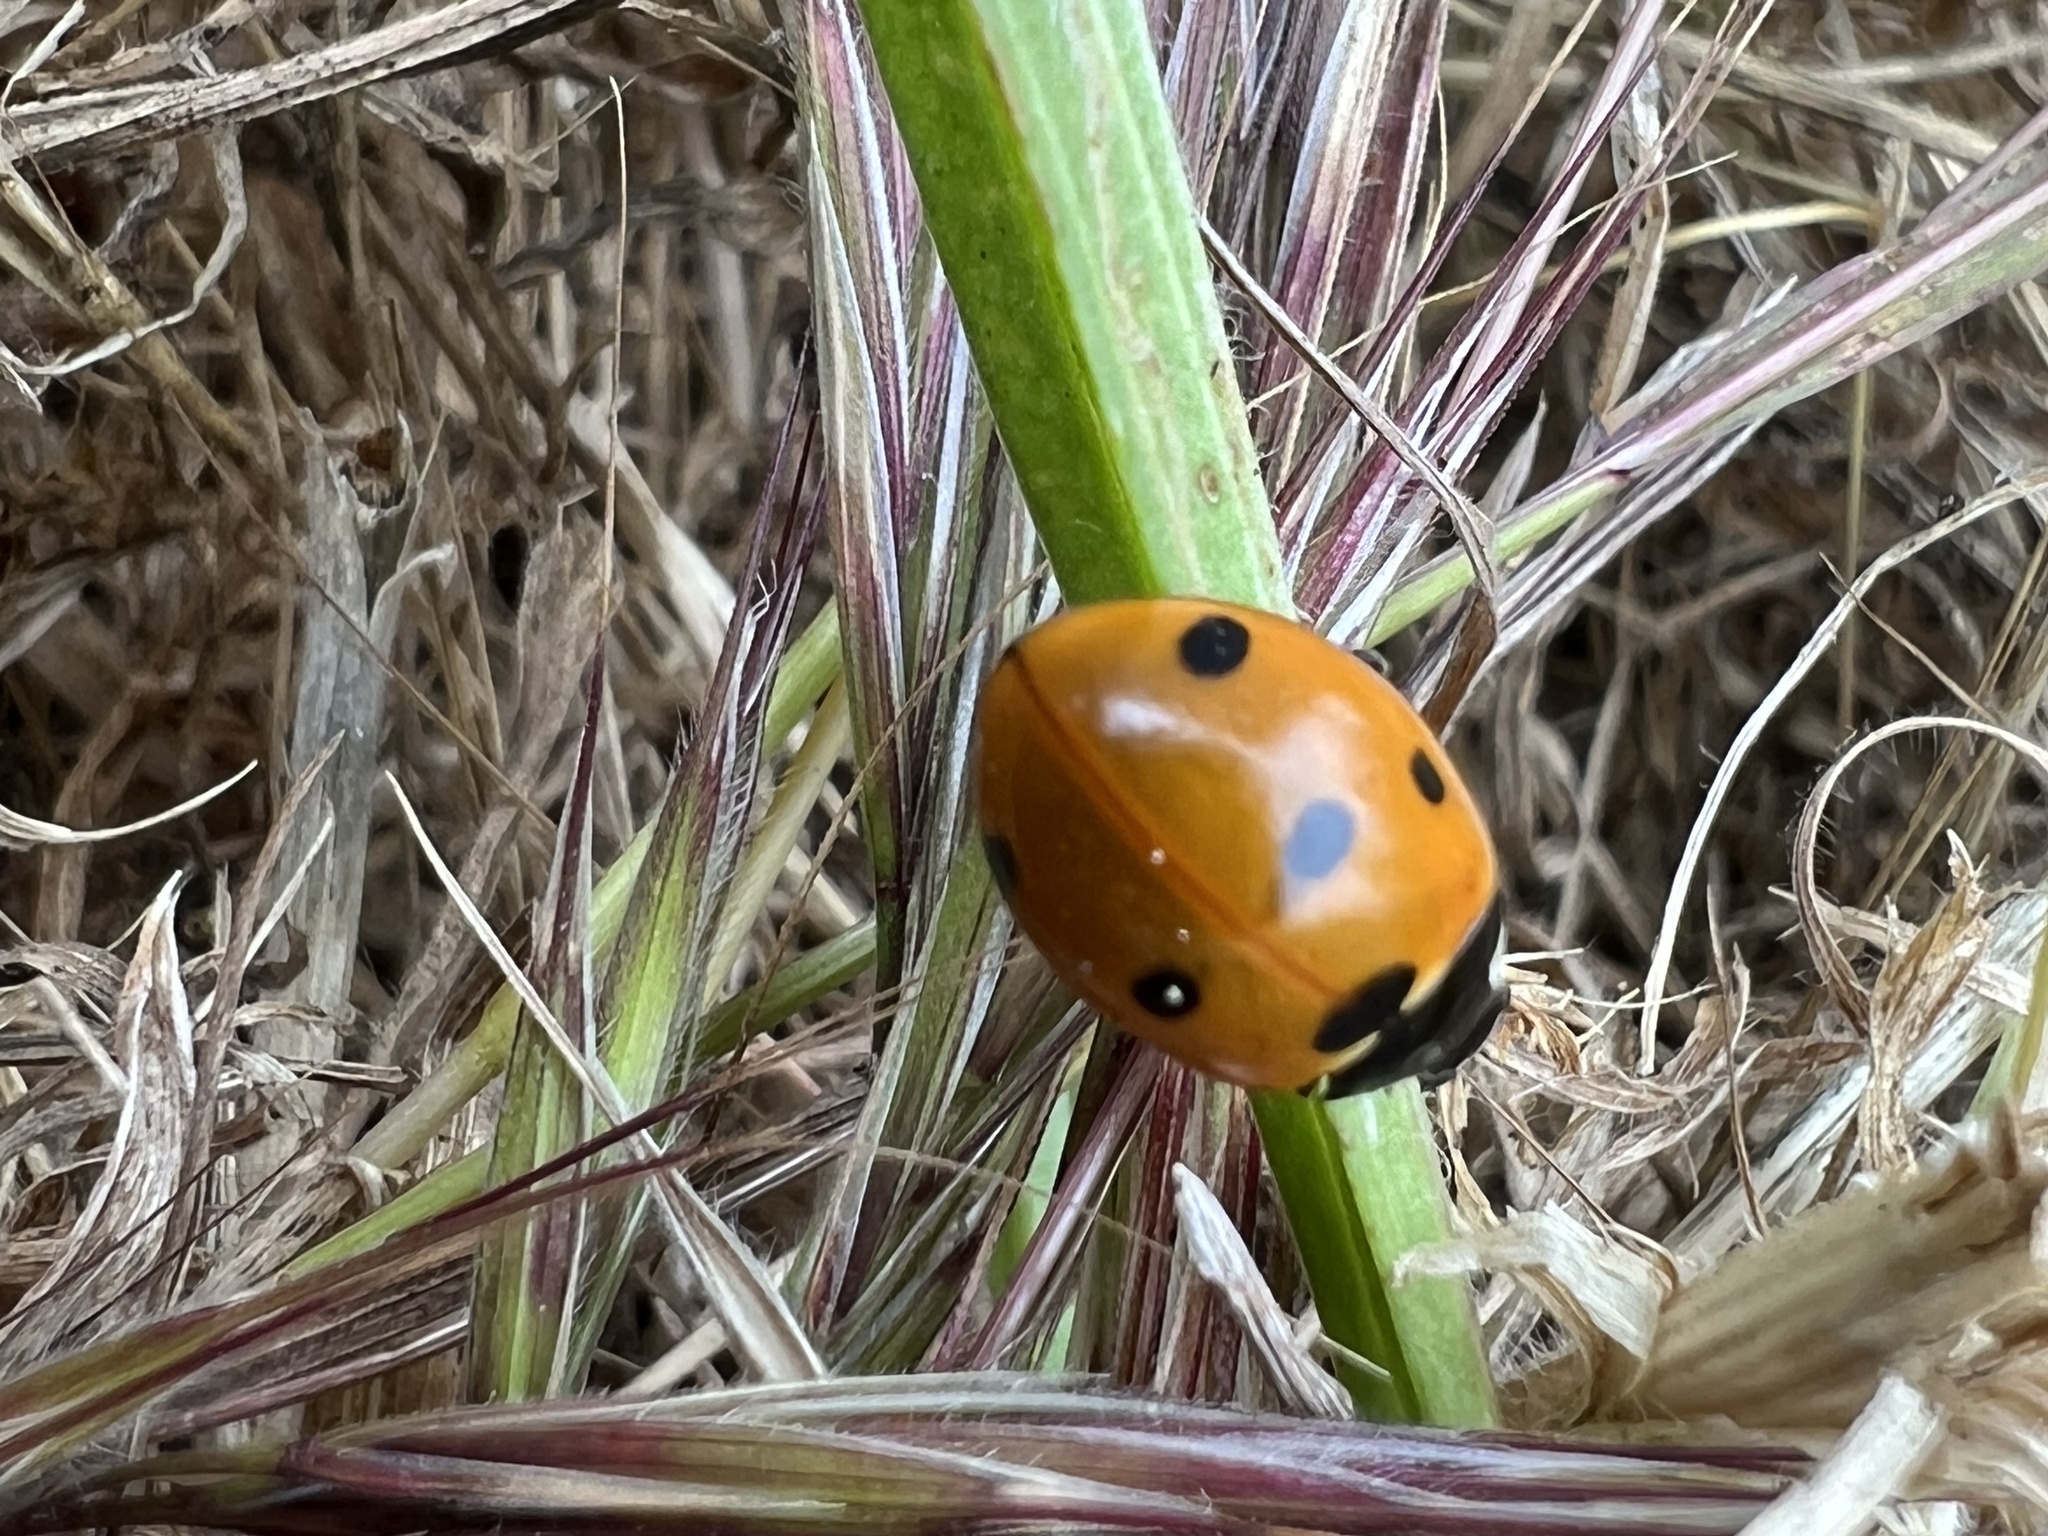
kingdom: Animalia
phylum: Arthropoda
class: Insecta
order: Coleoptera
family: Coccinellidae
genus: Coccinella
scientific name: Coccinella septempunctata
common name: Sevenspotted lady beetle
